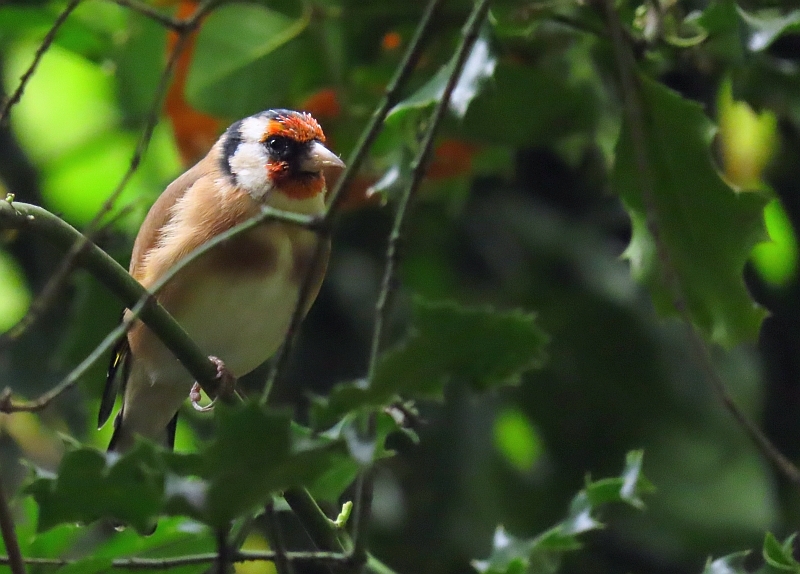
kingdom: Animalia
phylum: Chordata
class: Aves
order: Passeriformes
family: Fringillidae
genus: Carduelis
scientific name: Carduelis carduelis
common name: European goldfinch
